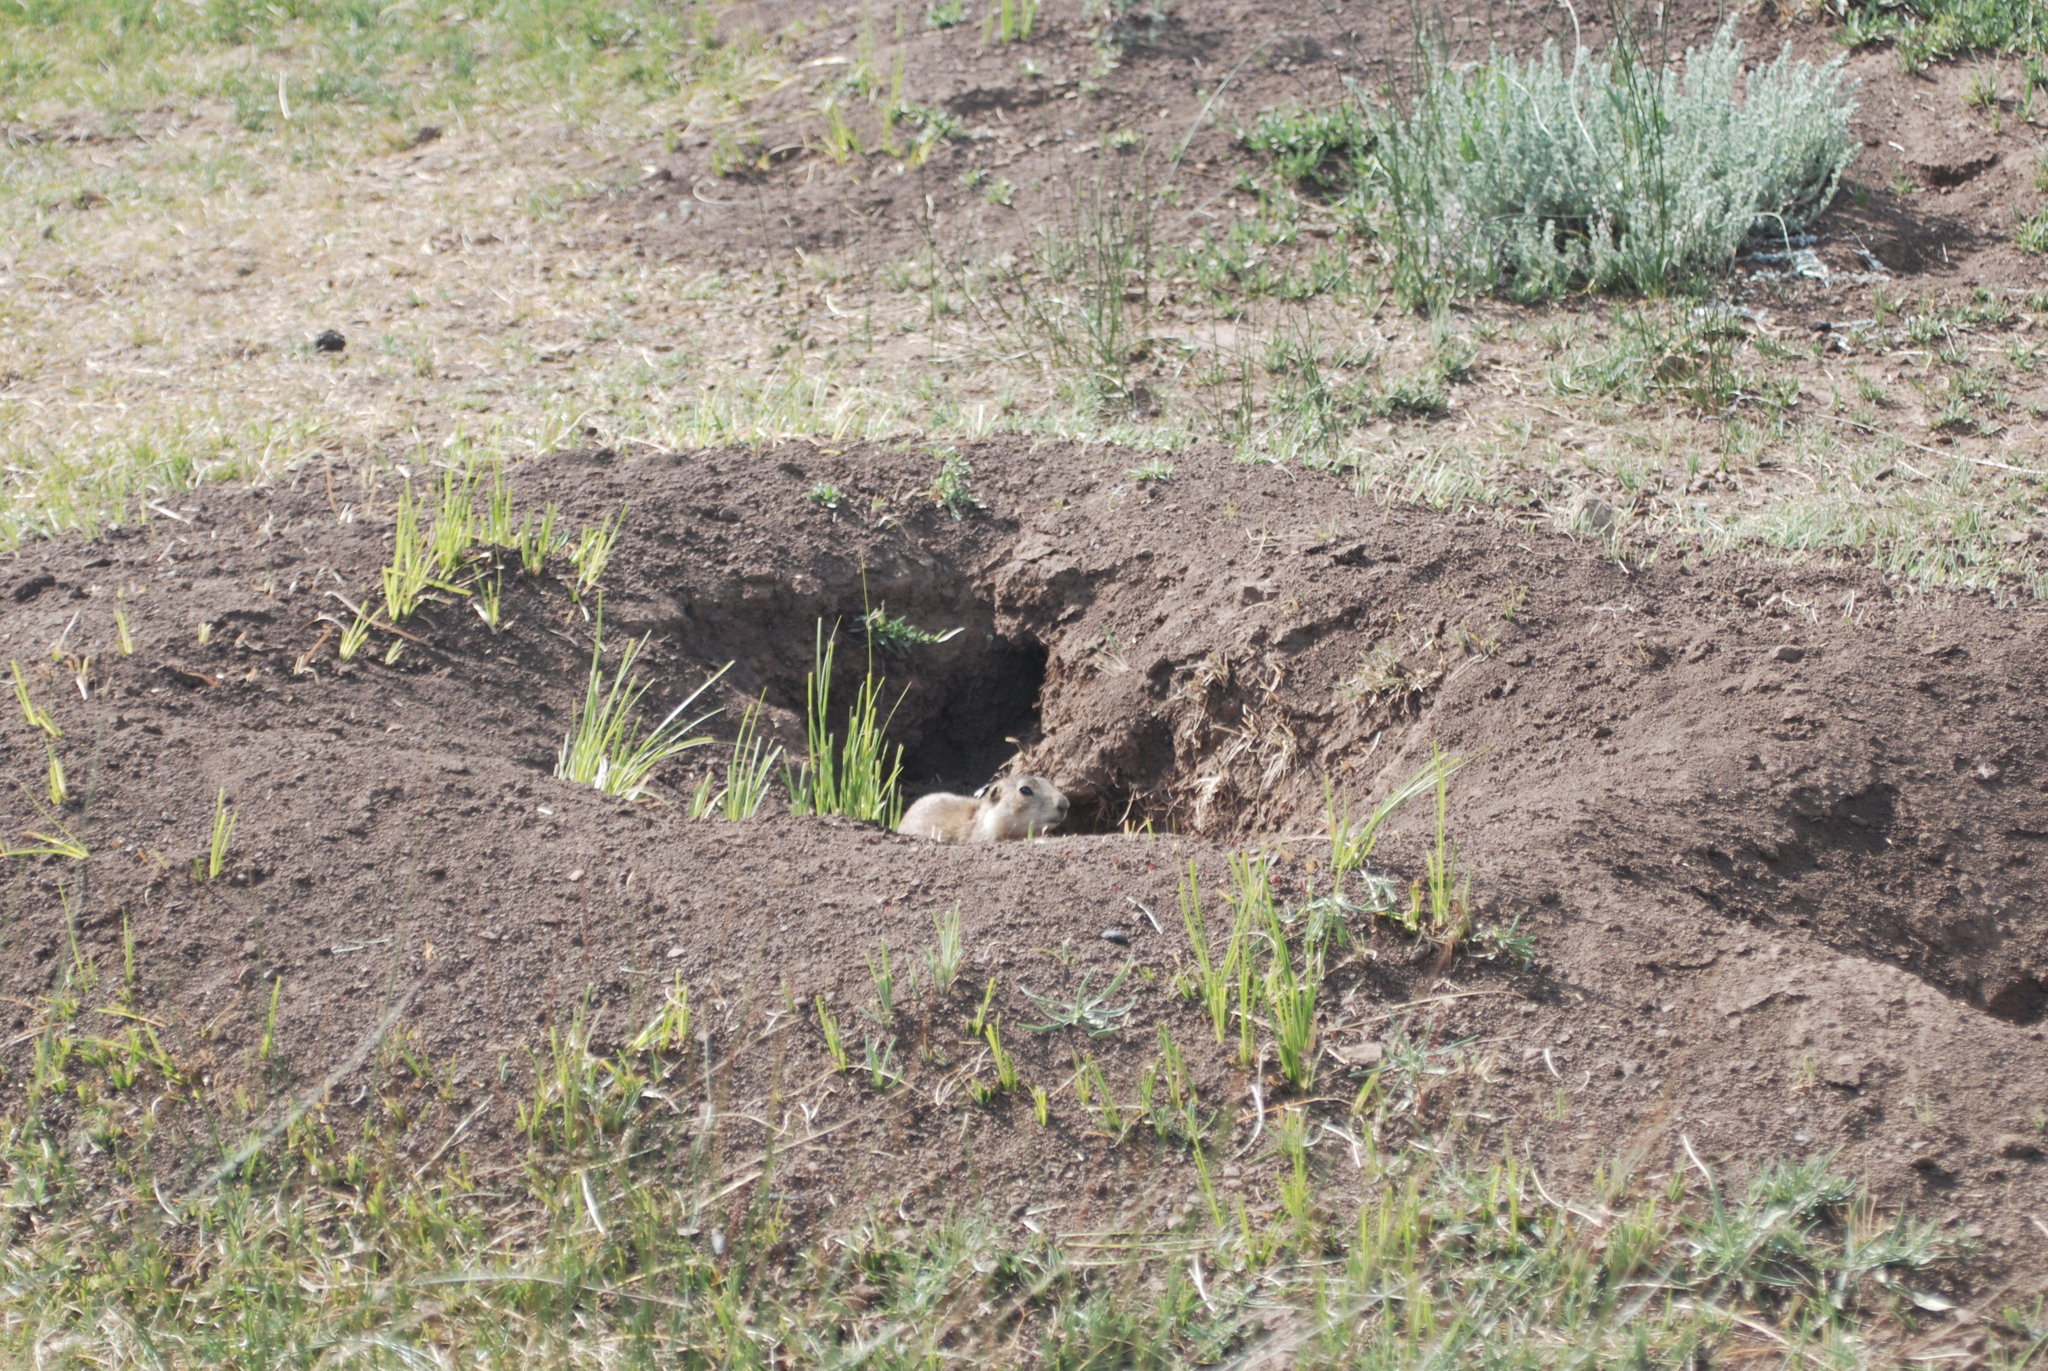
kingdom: Animalia
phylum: Chordata
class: Mammalia
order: Rodentia
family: Sciuridae
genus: Cynomys
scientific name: Cynomys gunnisoni
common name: Gunnison's prairie dog
